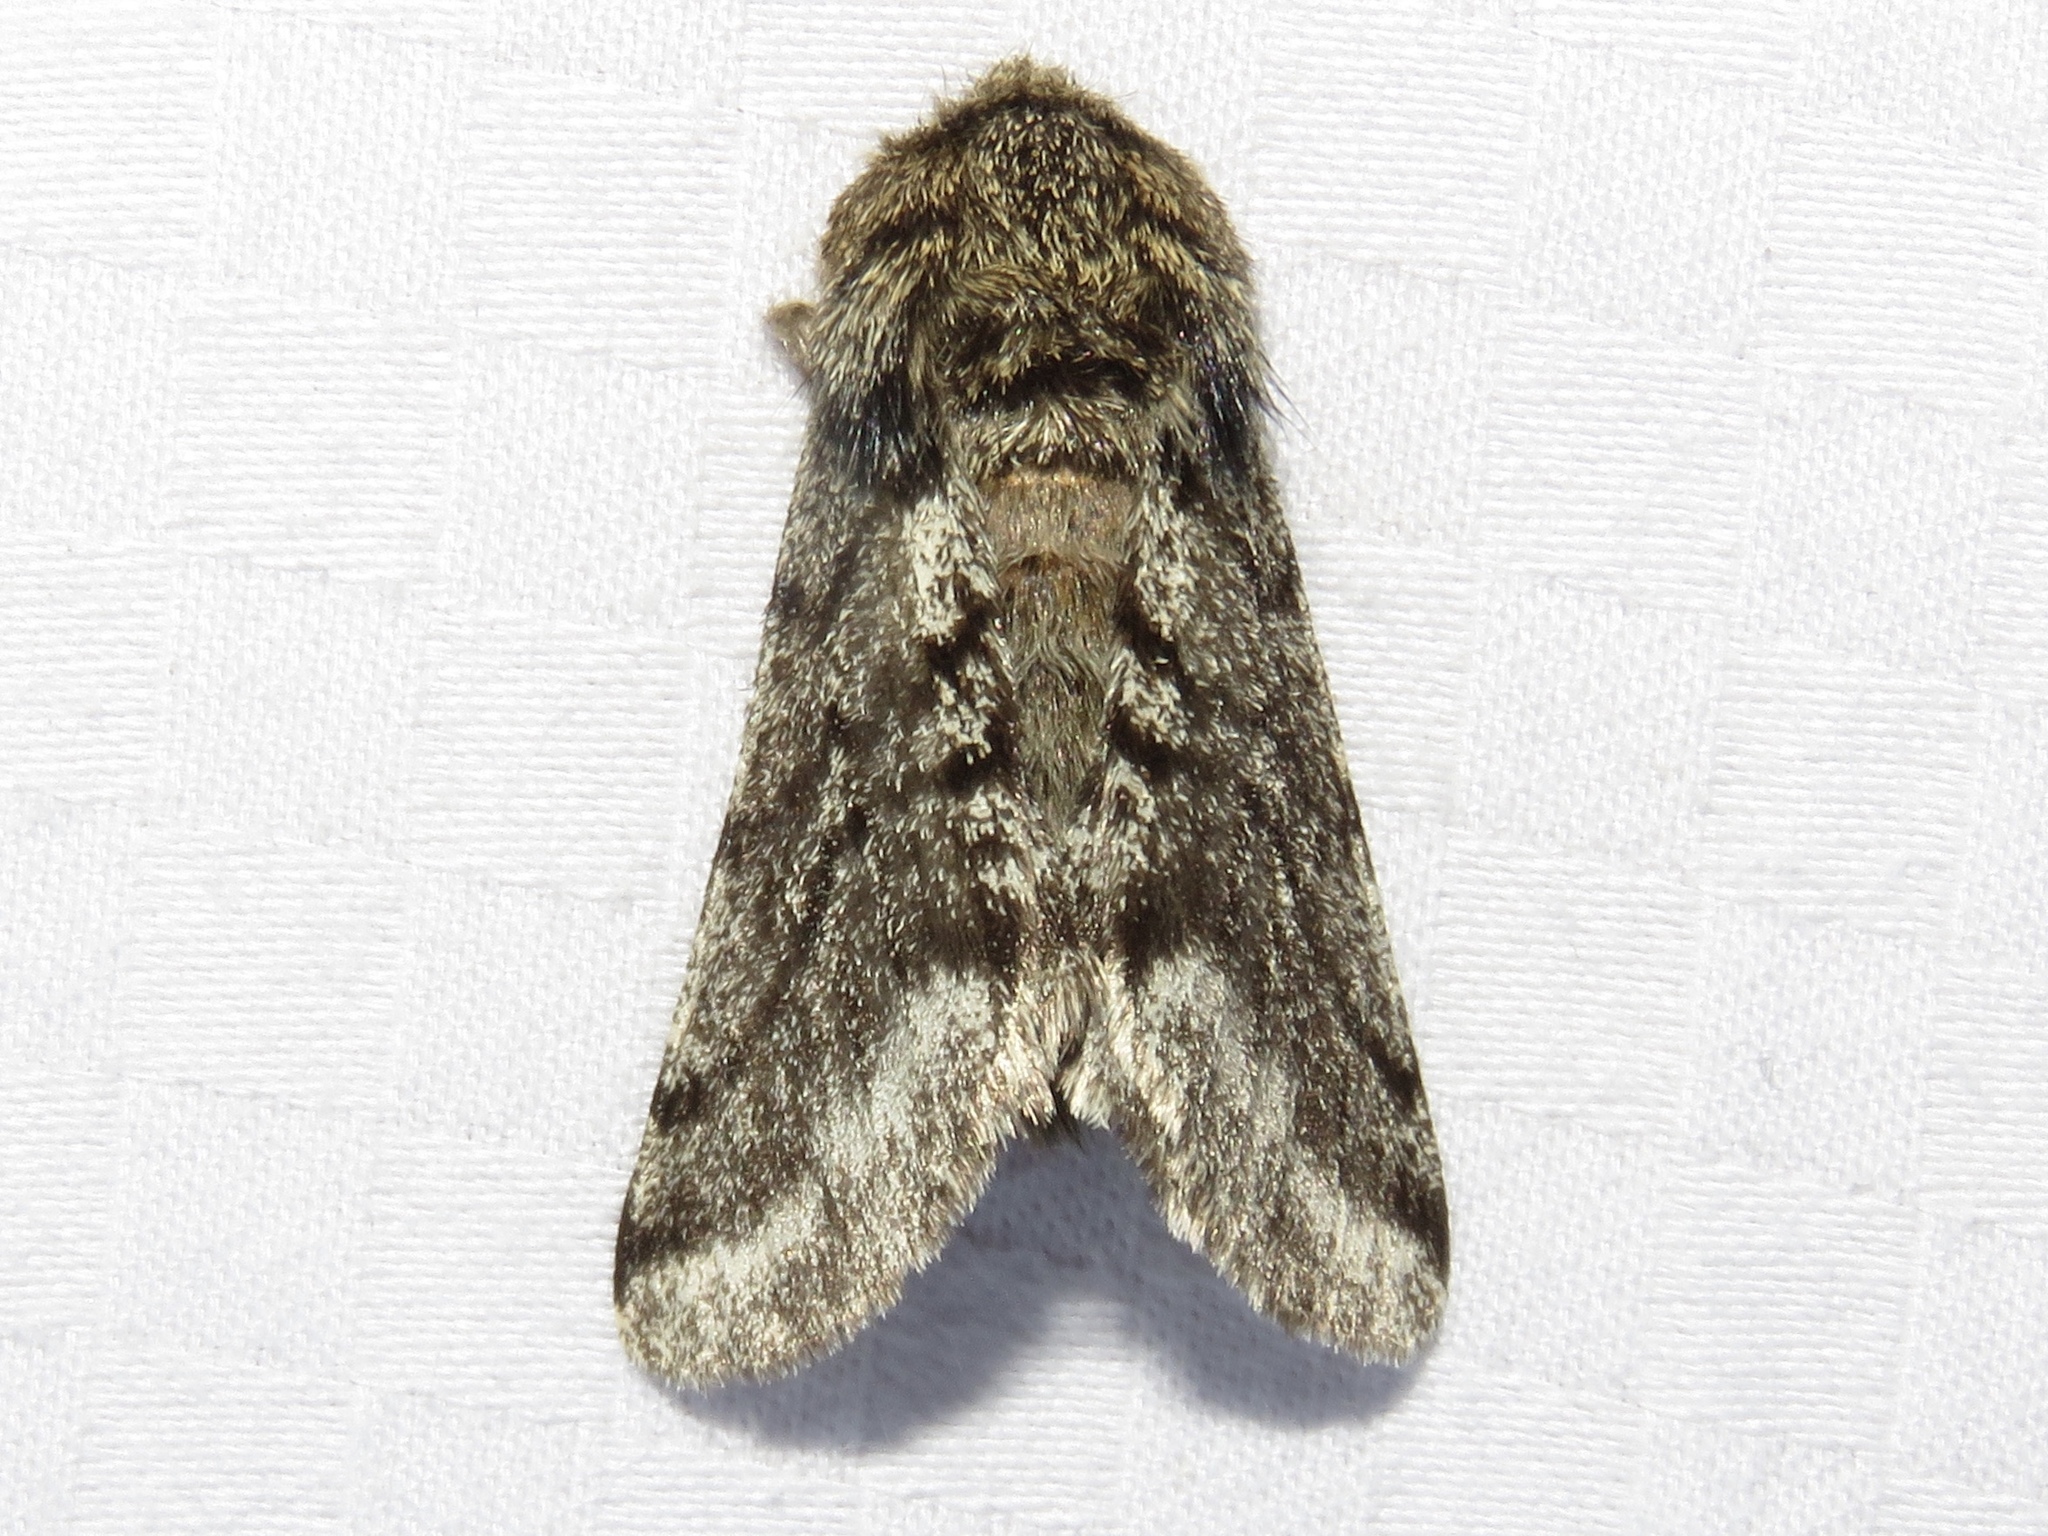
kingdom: Animalia
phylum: Arthropoda
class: Insecta
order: Lepidoptera
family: Geometridae
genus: Lycia
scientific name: Lycia ursaria
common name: Stout spanworm
